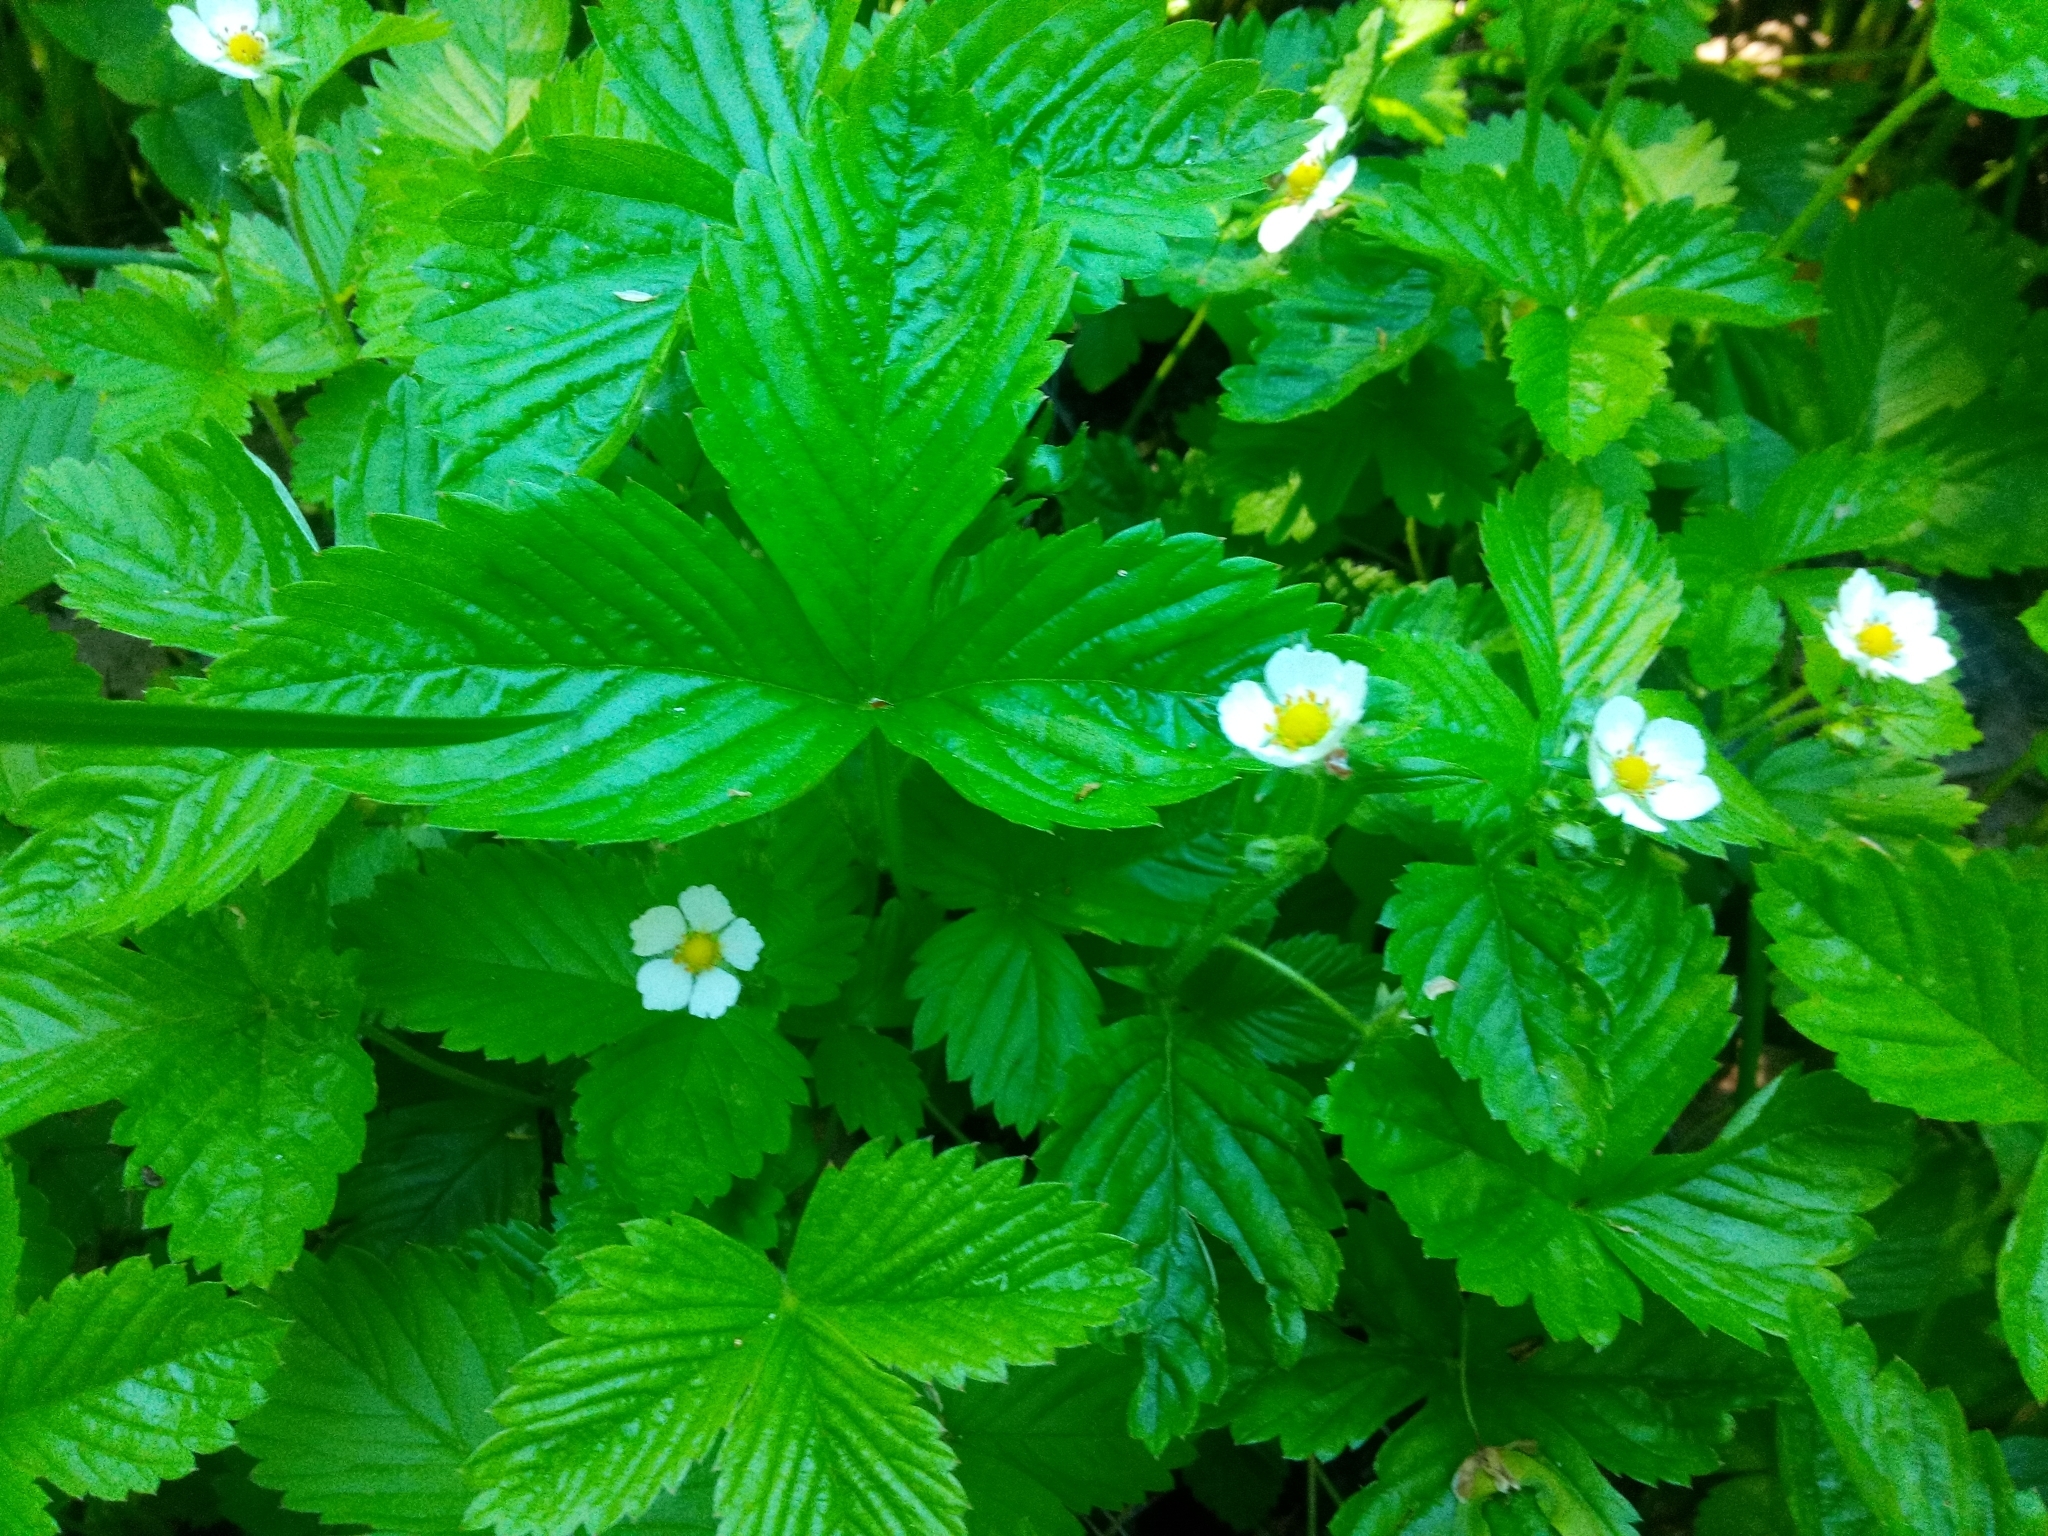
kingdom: Plantae
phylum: Tracheophyta
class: Magnoliopsida
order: Rosales
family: Rosaceae
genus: Fragaria
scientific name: Fragaria vesca
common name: Wild strawberry
